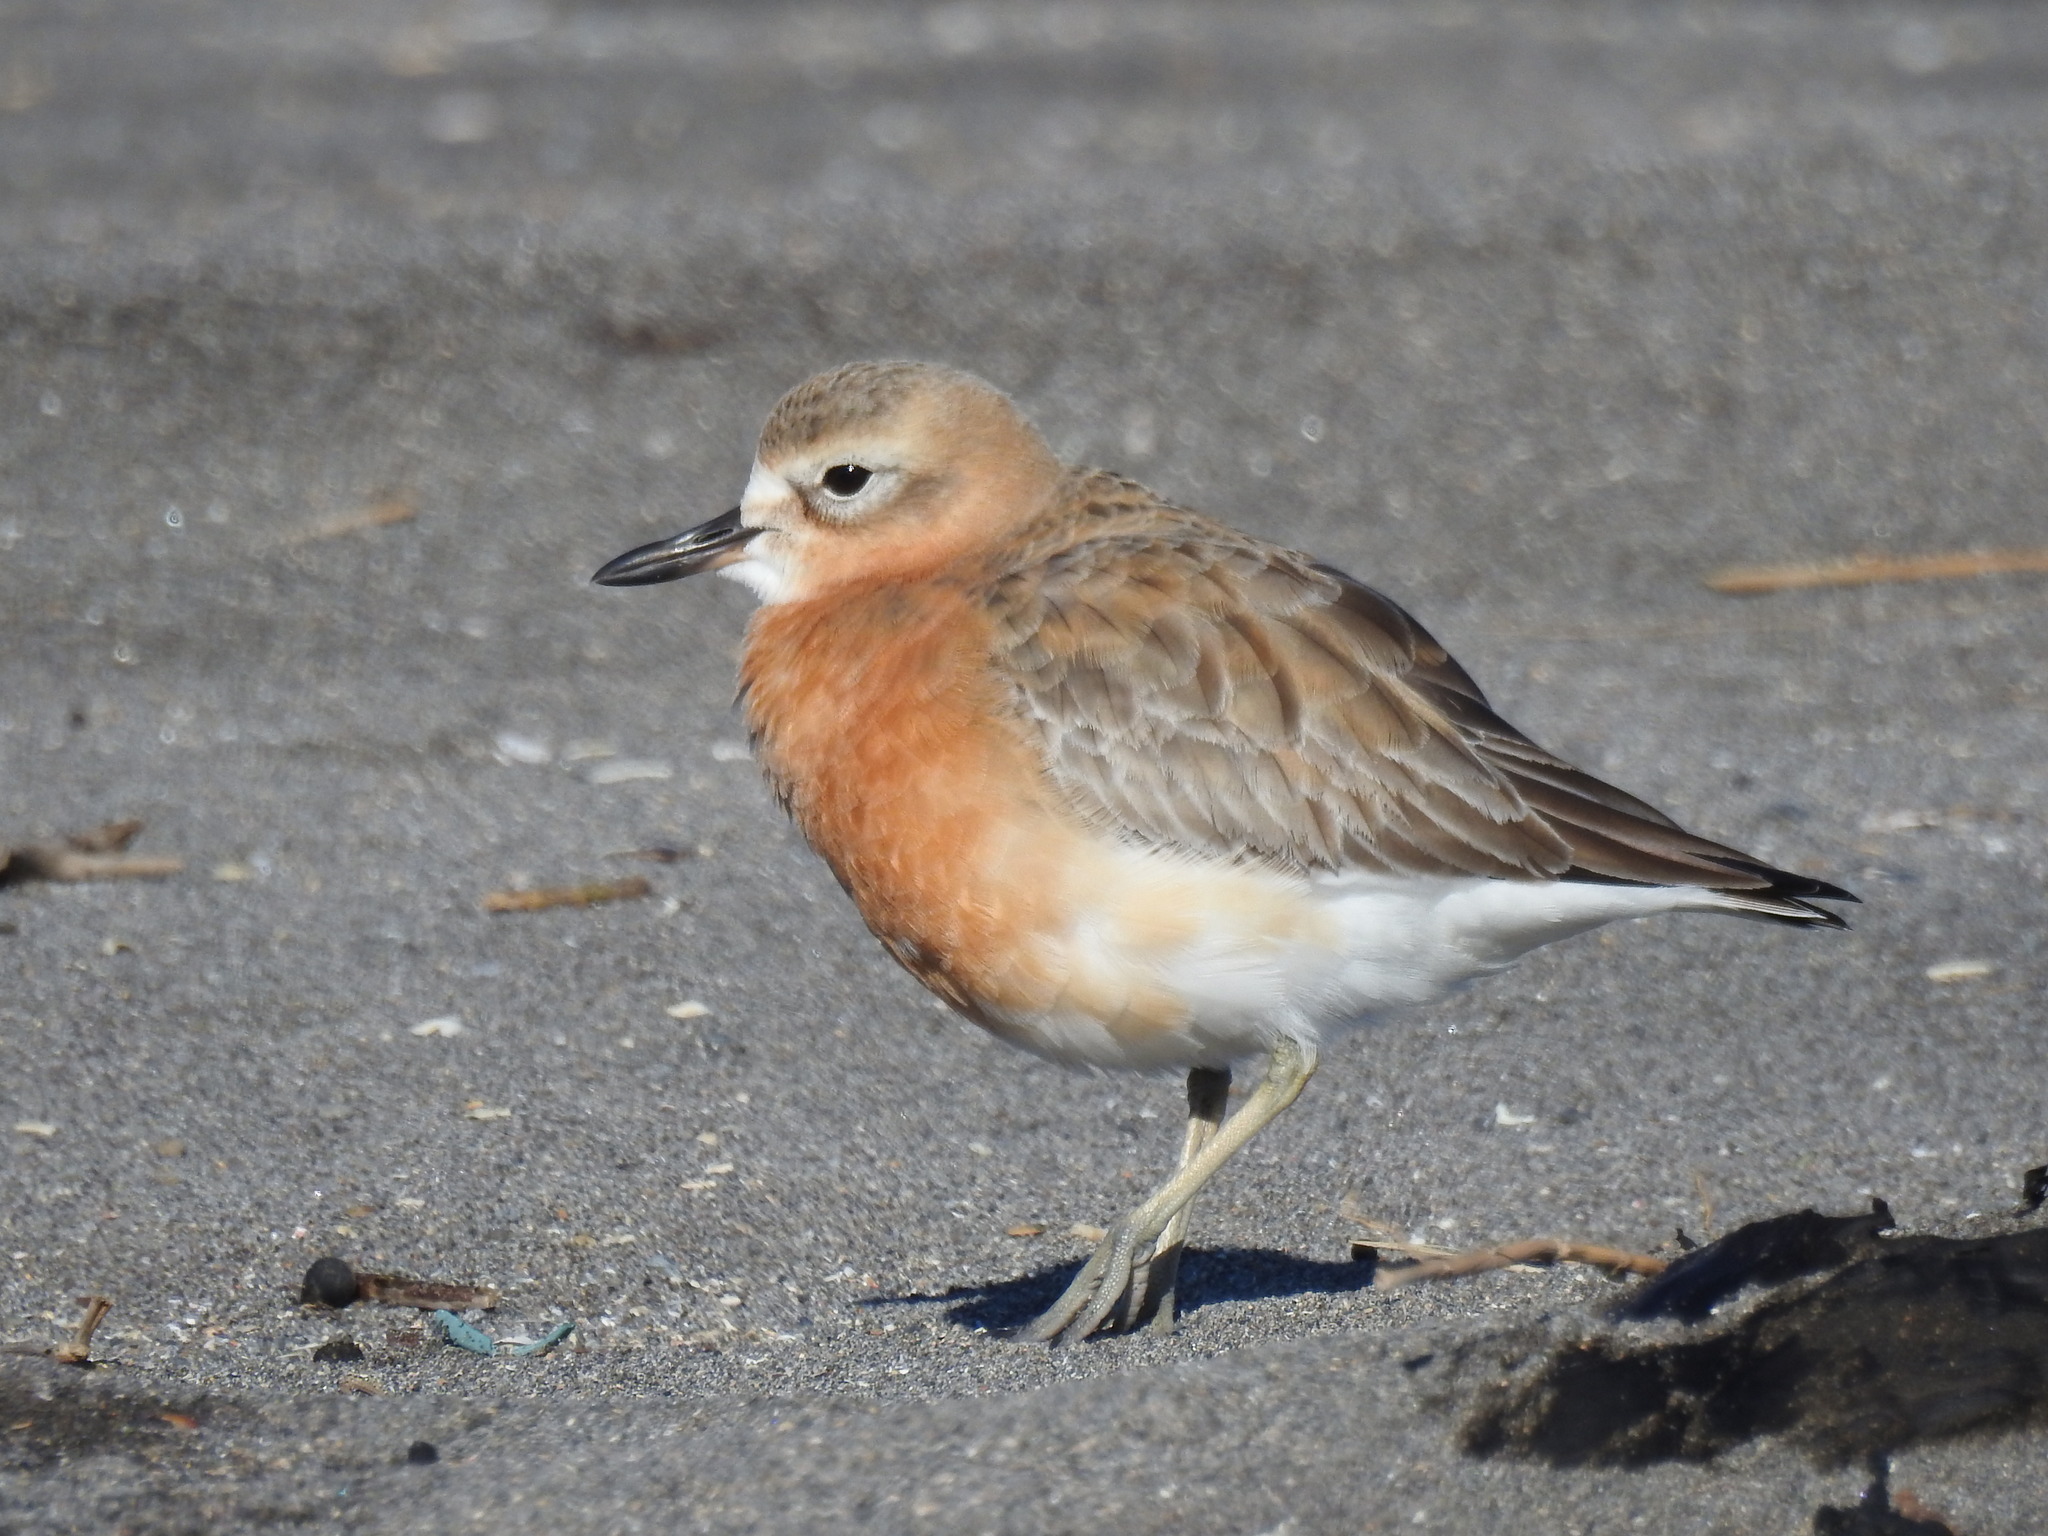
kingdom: Animalia
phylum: Chordata
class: Aves
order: Charadriiformes
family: Charadriidae
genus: Anarhynchus
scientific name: Anarhynchus
